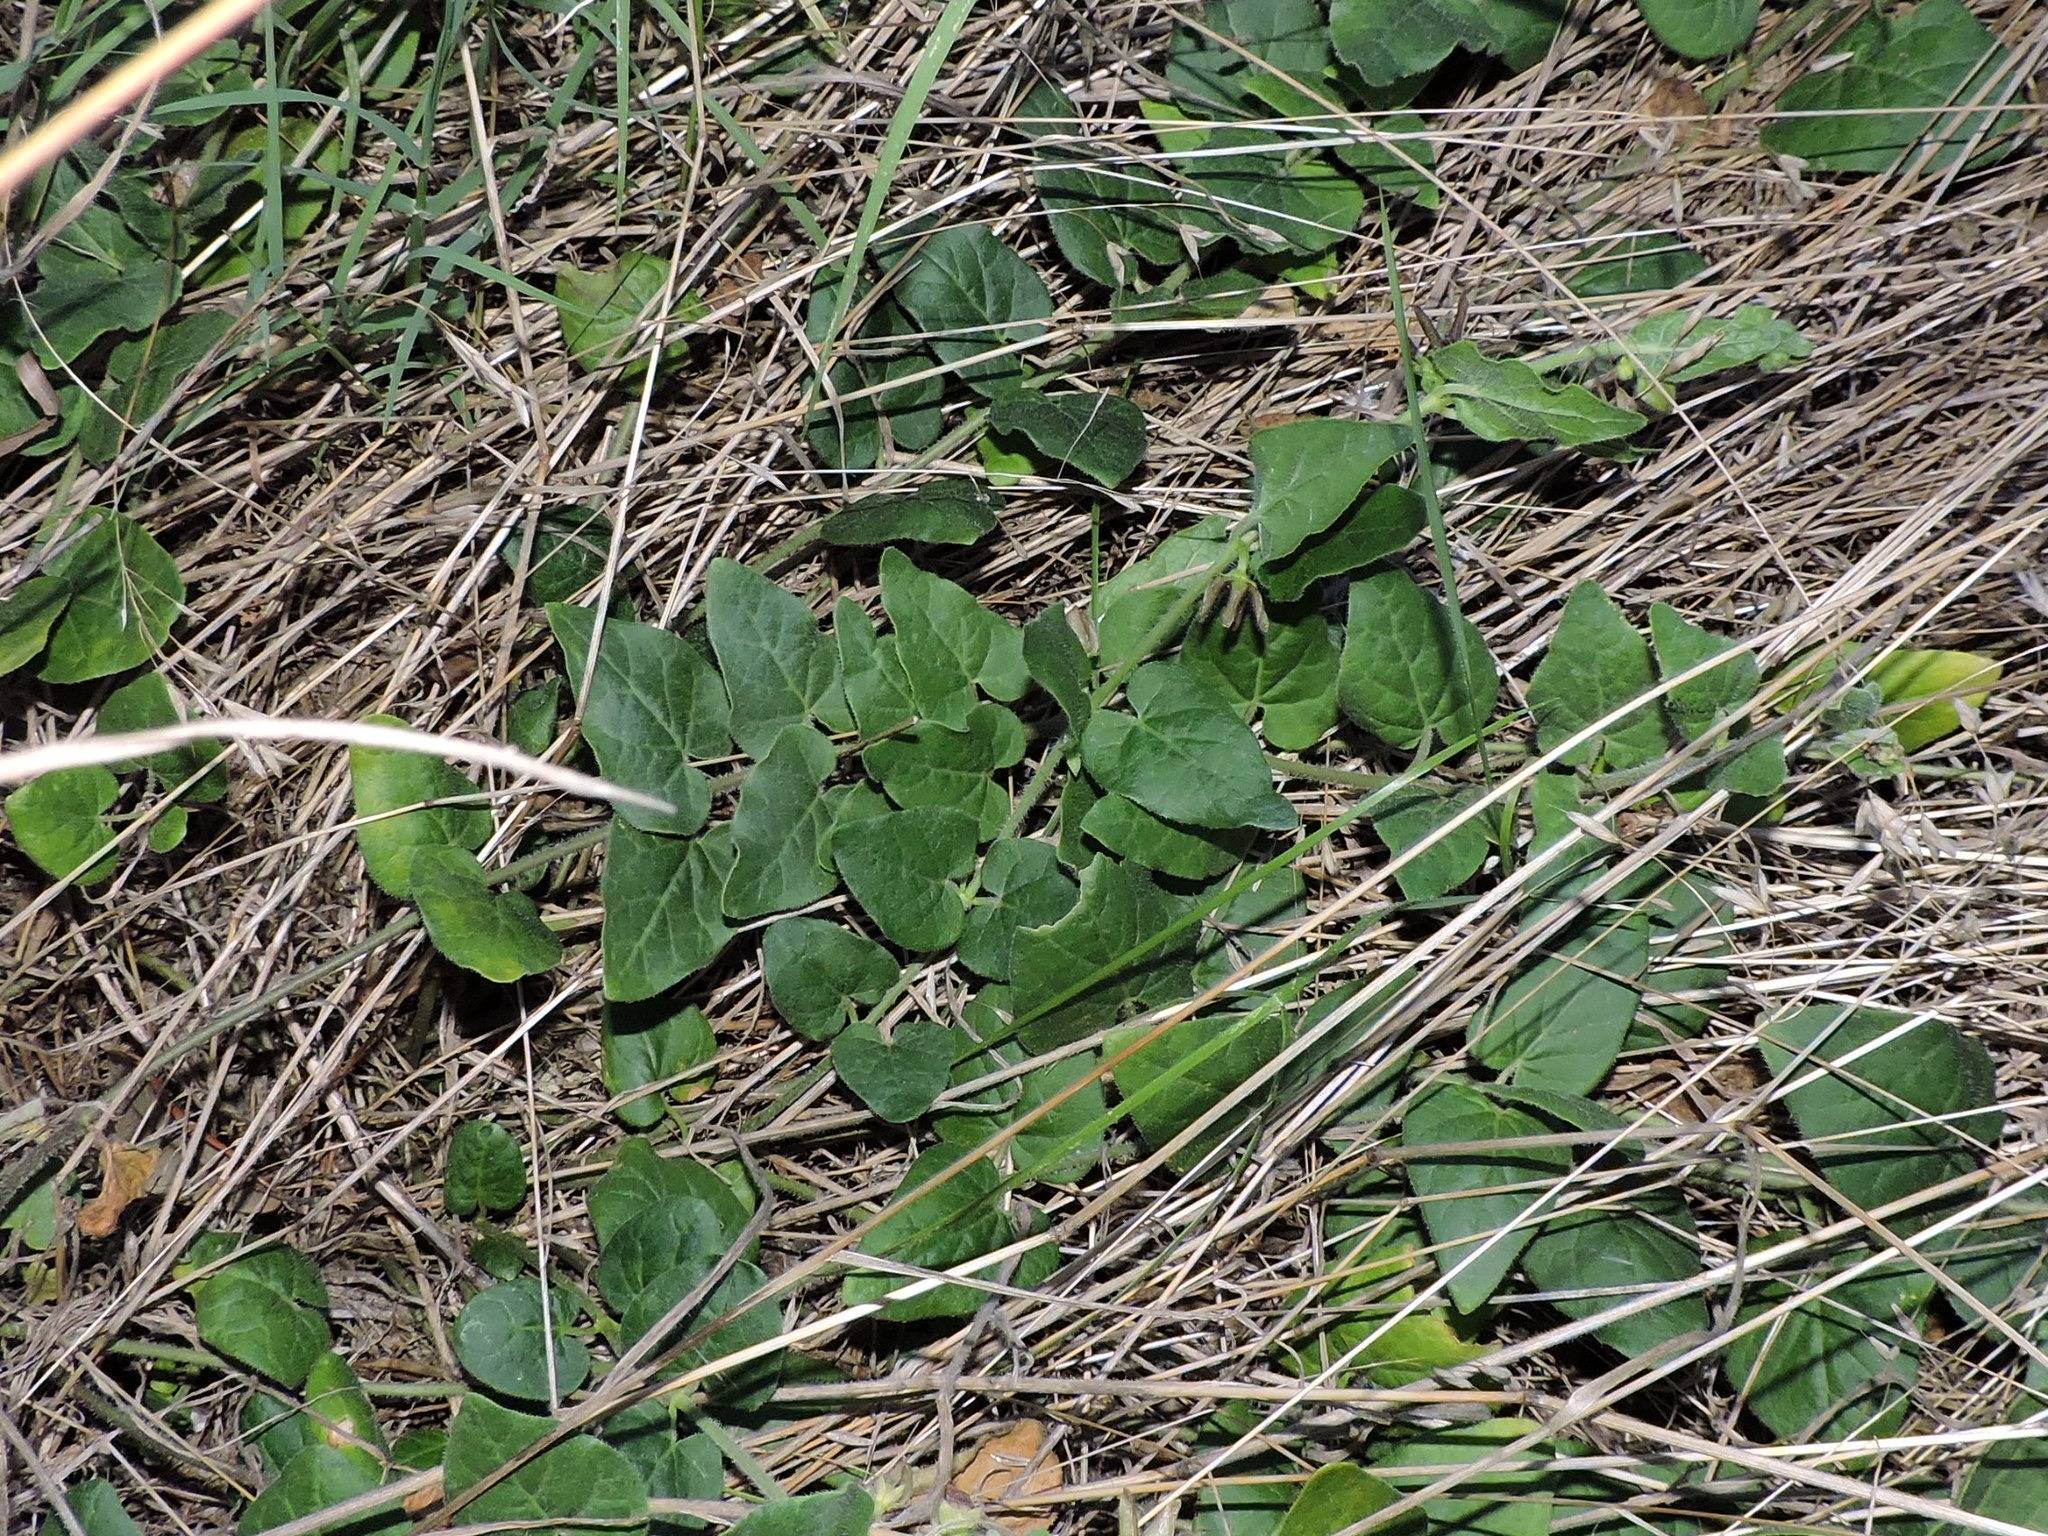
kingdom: Plantae
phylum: Tracheophyta
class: Magnoliopsida
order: Gentianales
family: Apocynaceae
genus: Chthamalia
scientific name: Chthamalia biflora
